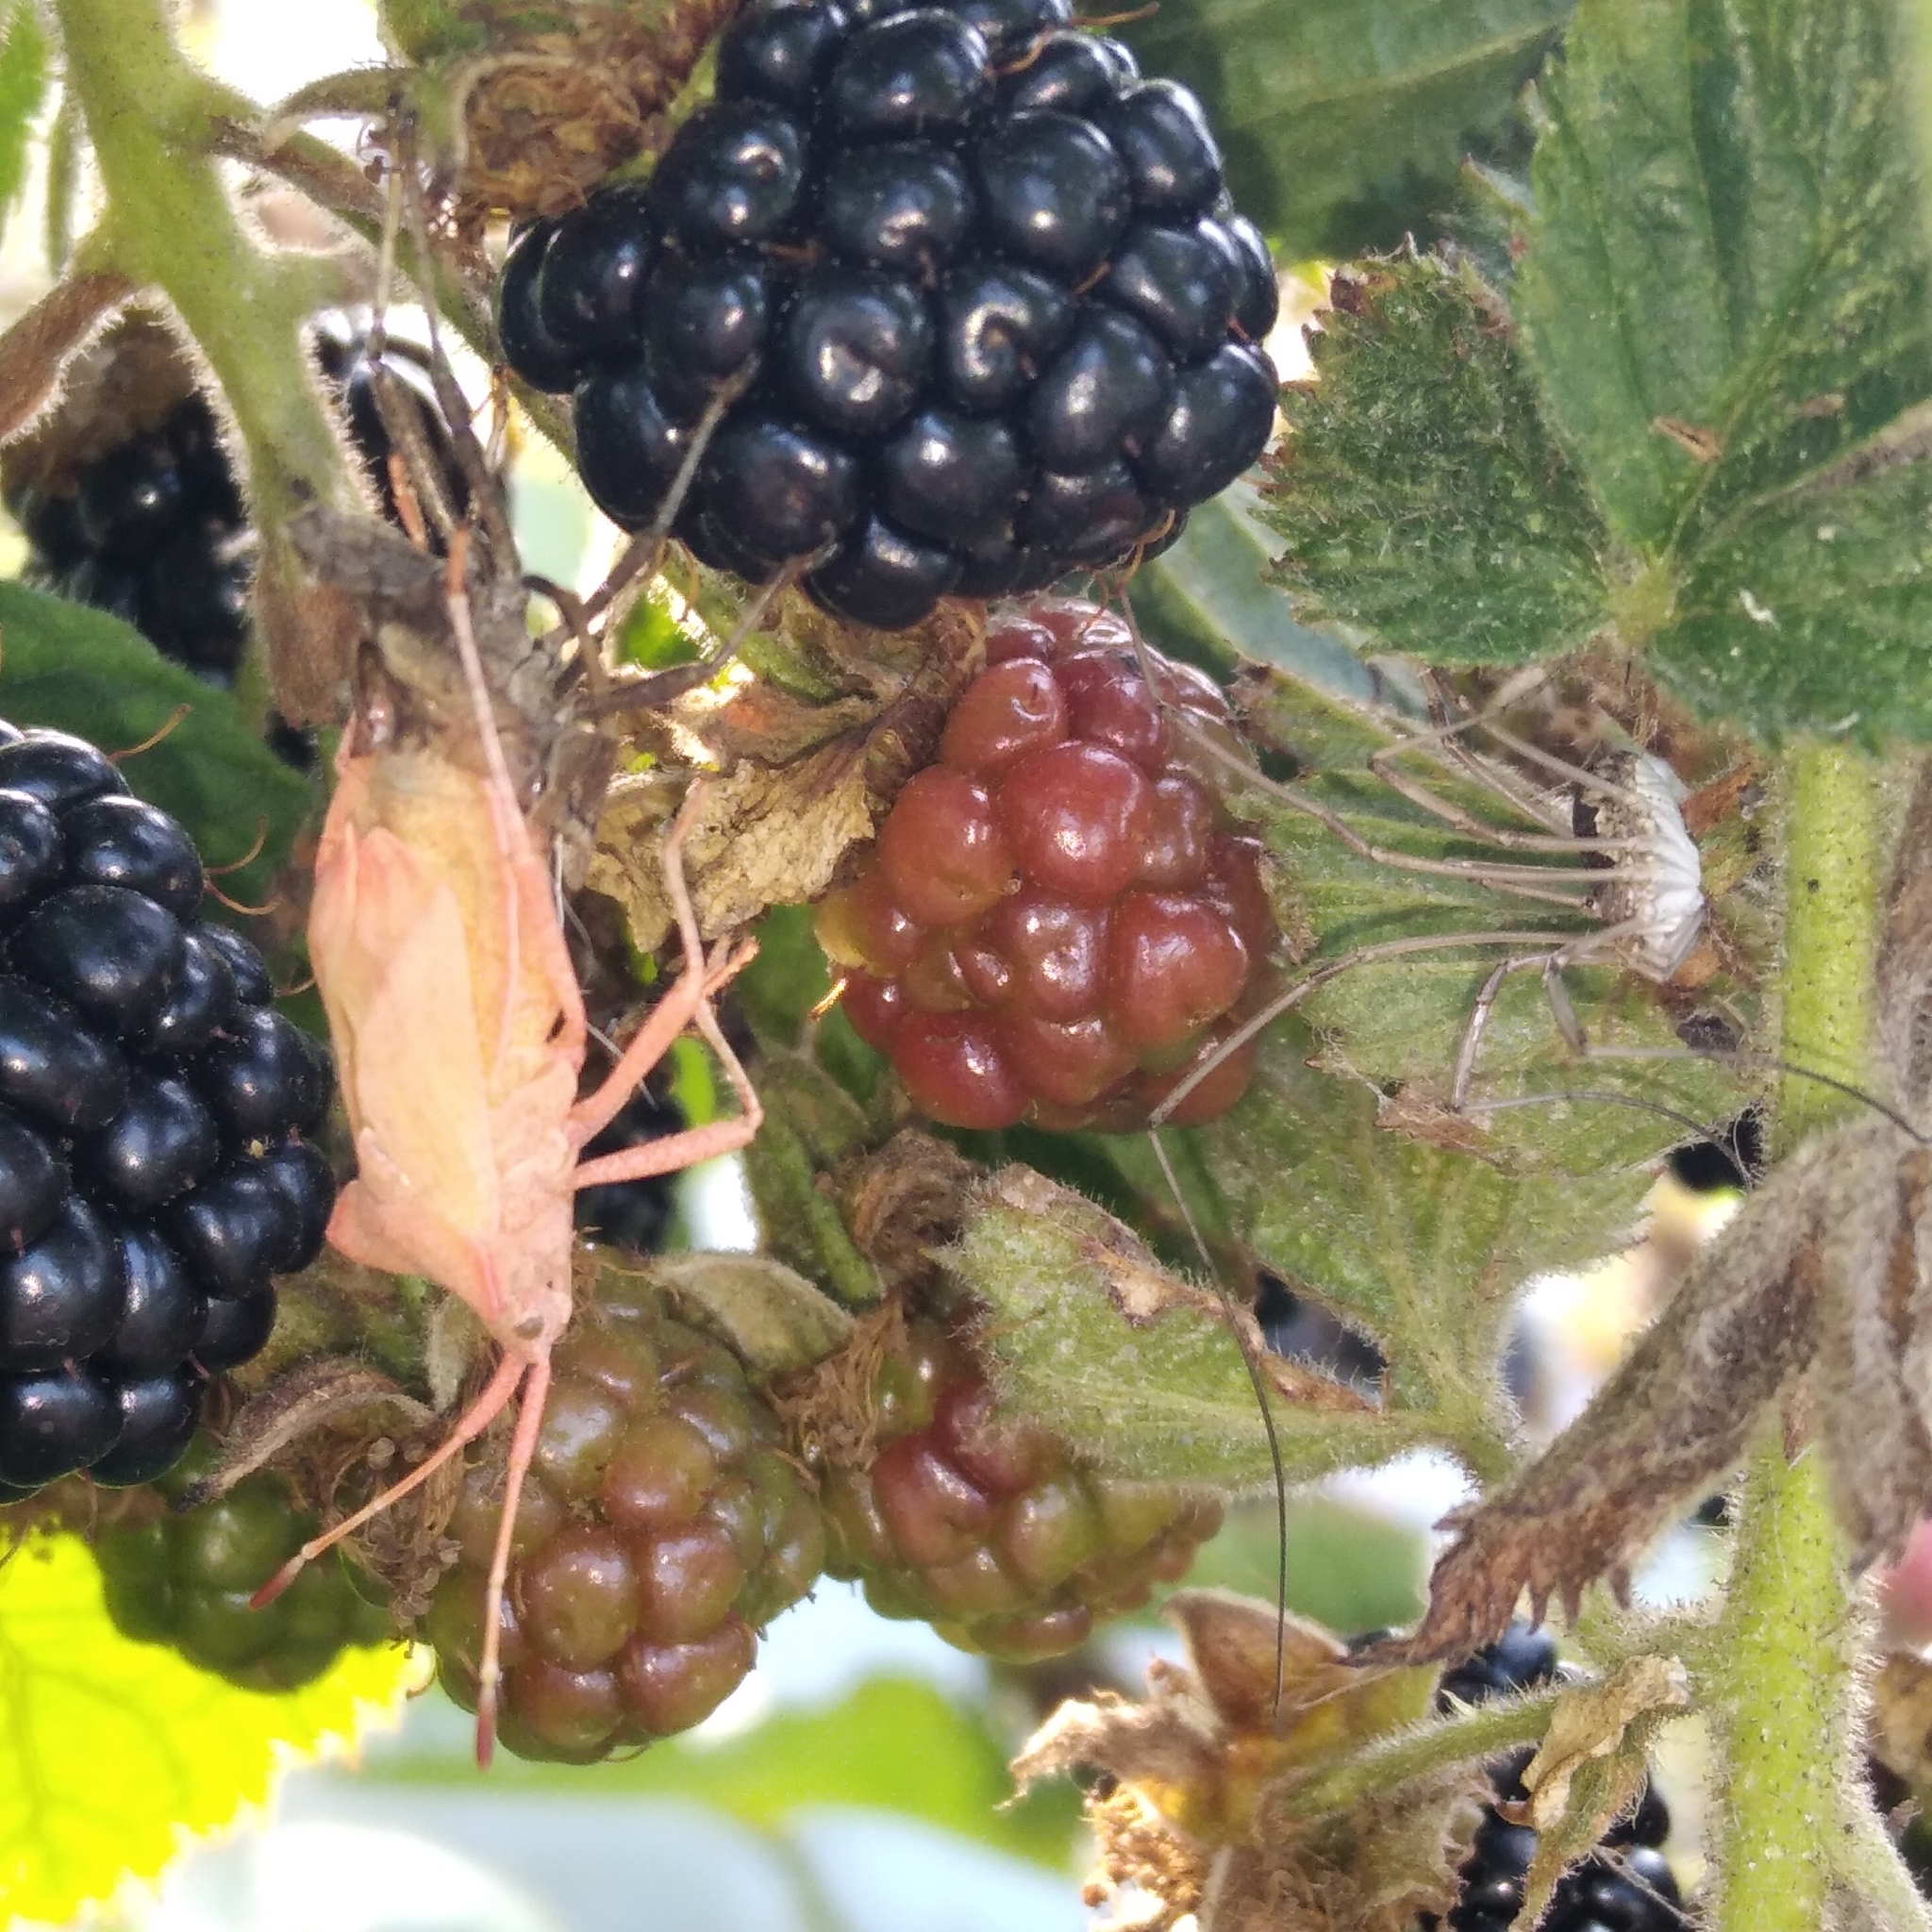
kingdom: Animalia
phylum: Arthropoda
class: Insecta
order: Hemiptera
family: Coreidae
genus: Coreus
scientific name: Coreus marginatus
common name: Dock bug
